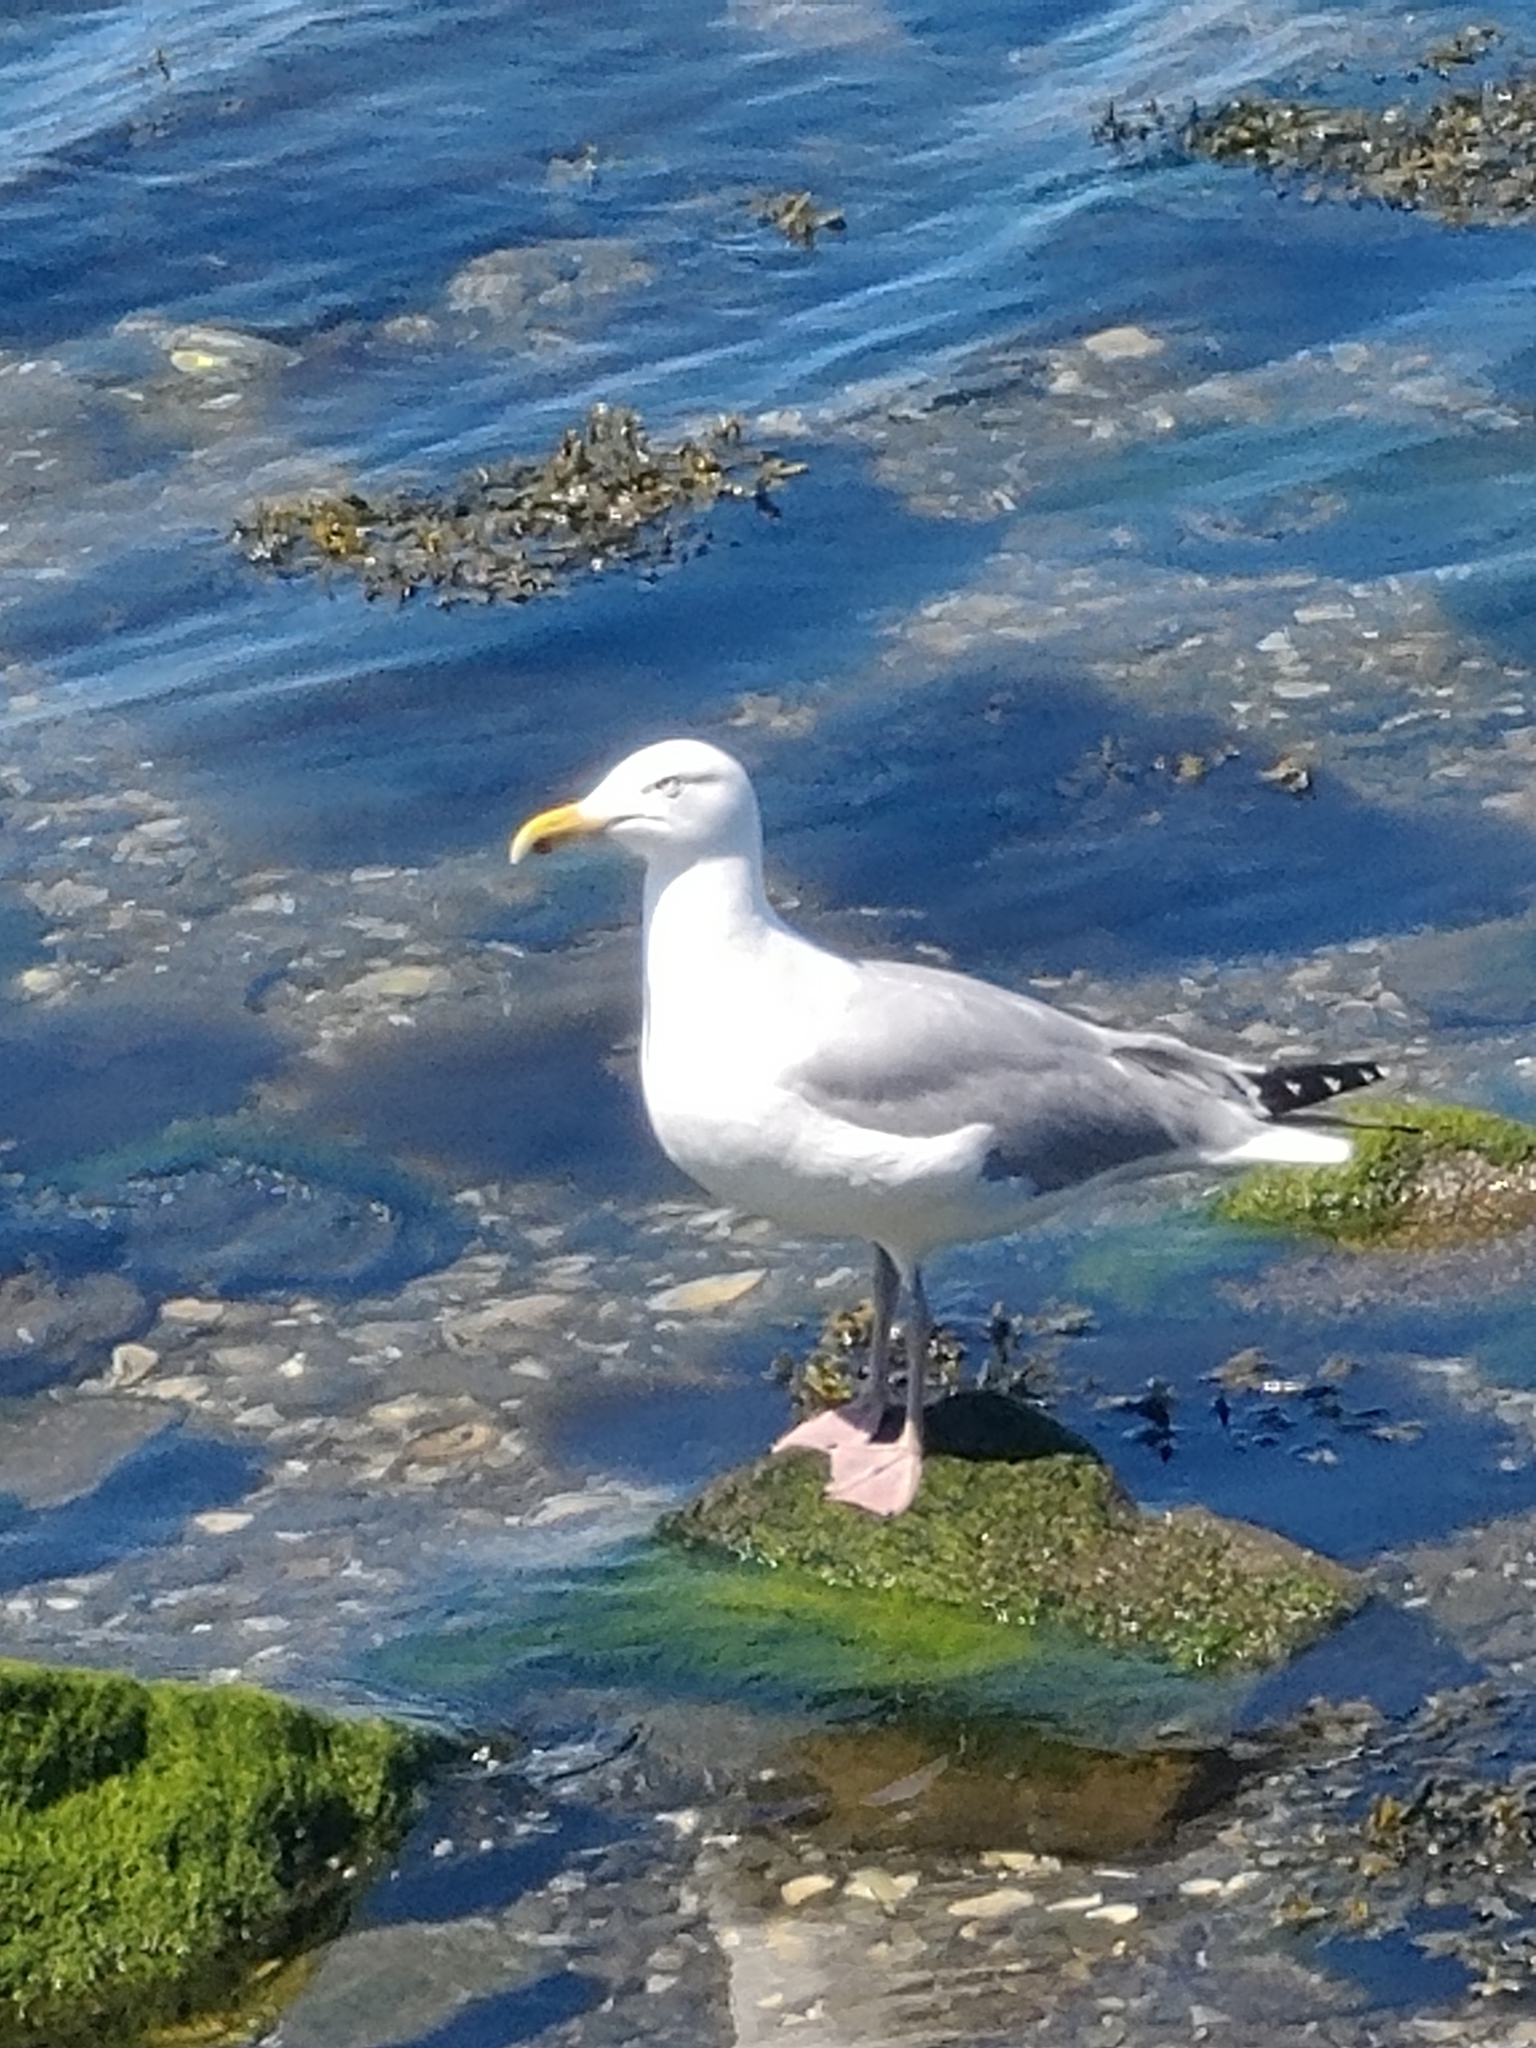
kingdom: Animalia
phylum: Chordata
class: Aves
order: Charadriiformes
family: Laridae
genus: Larus
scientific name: Larus argentatus
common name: Herring gull
